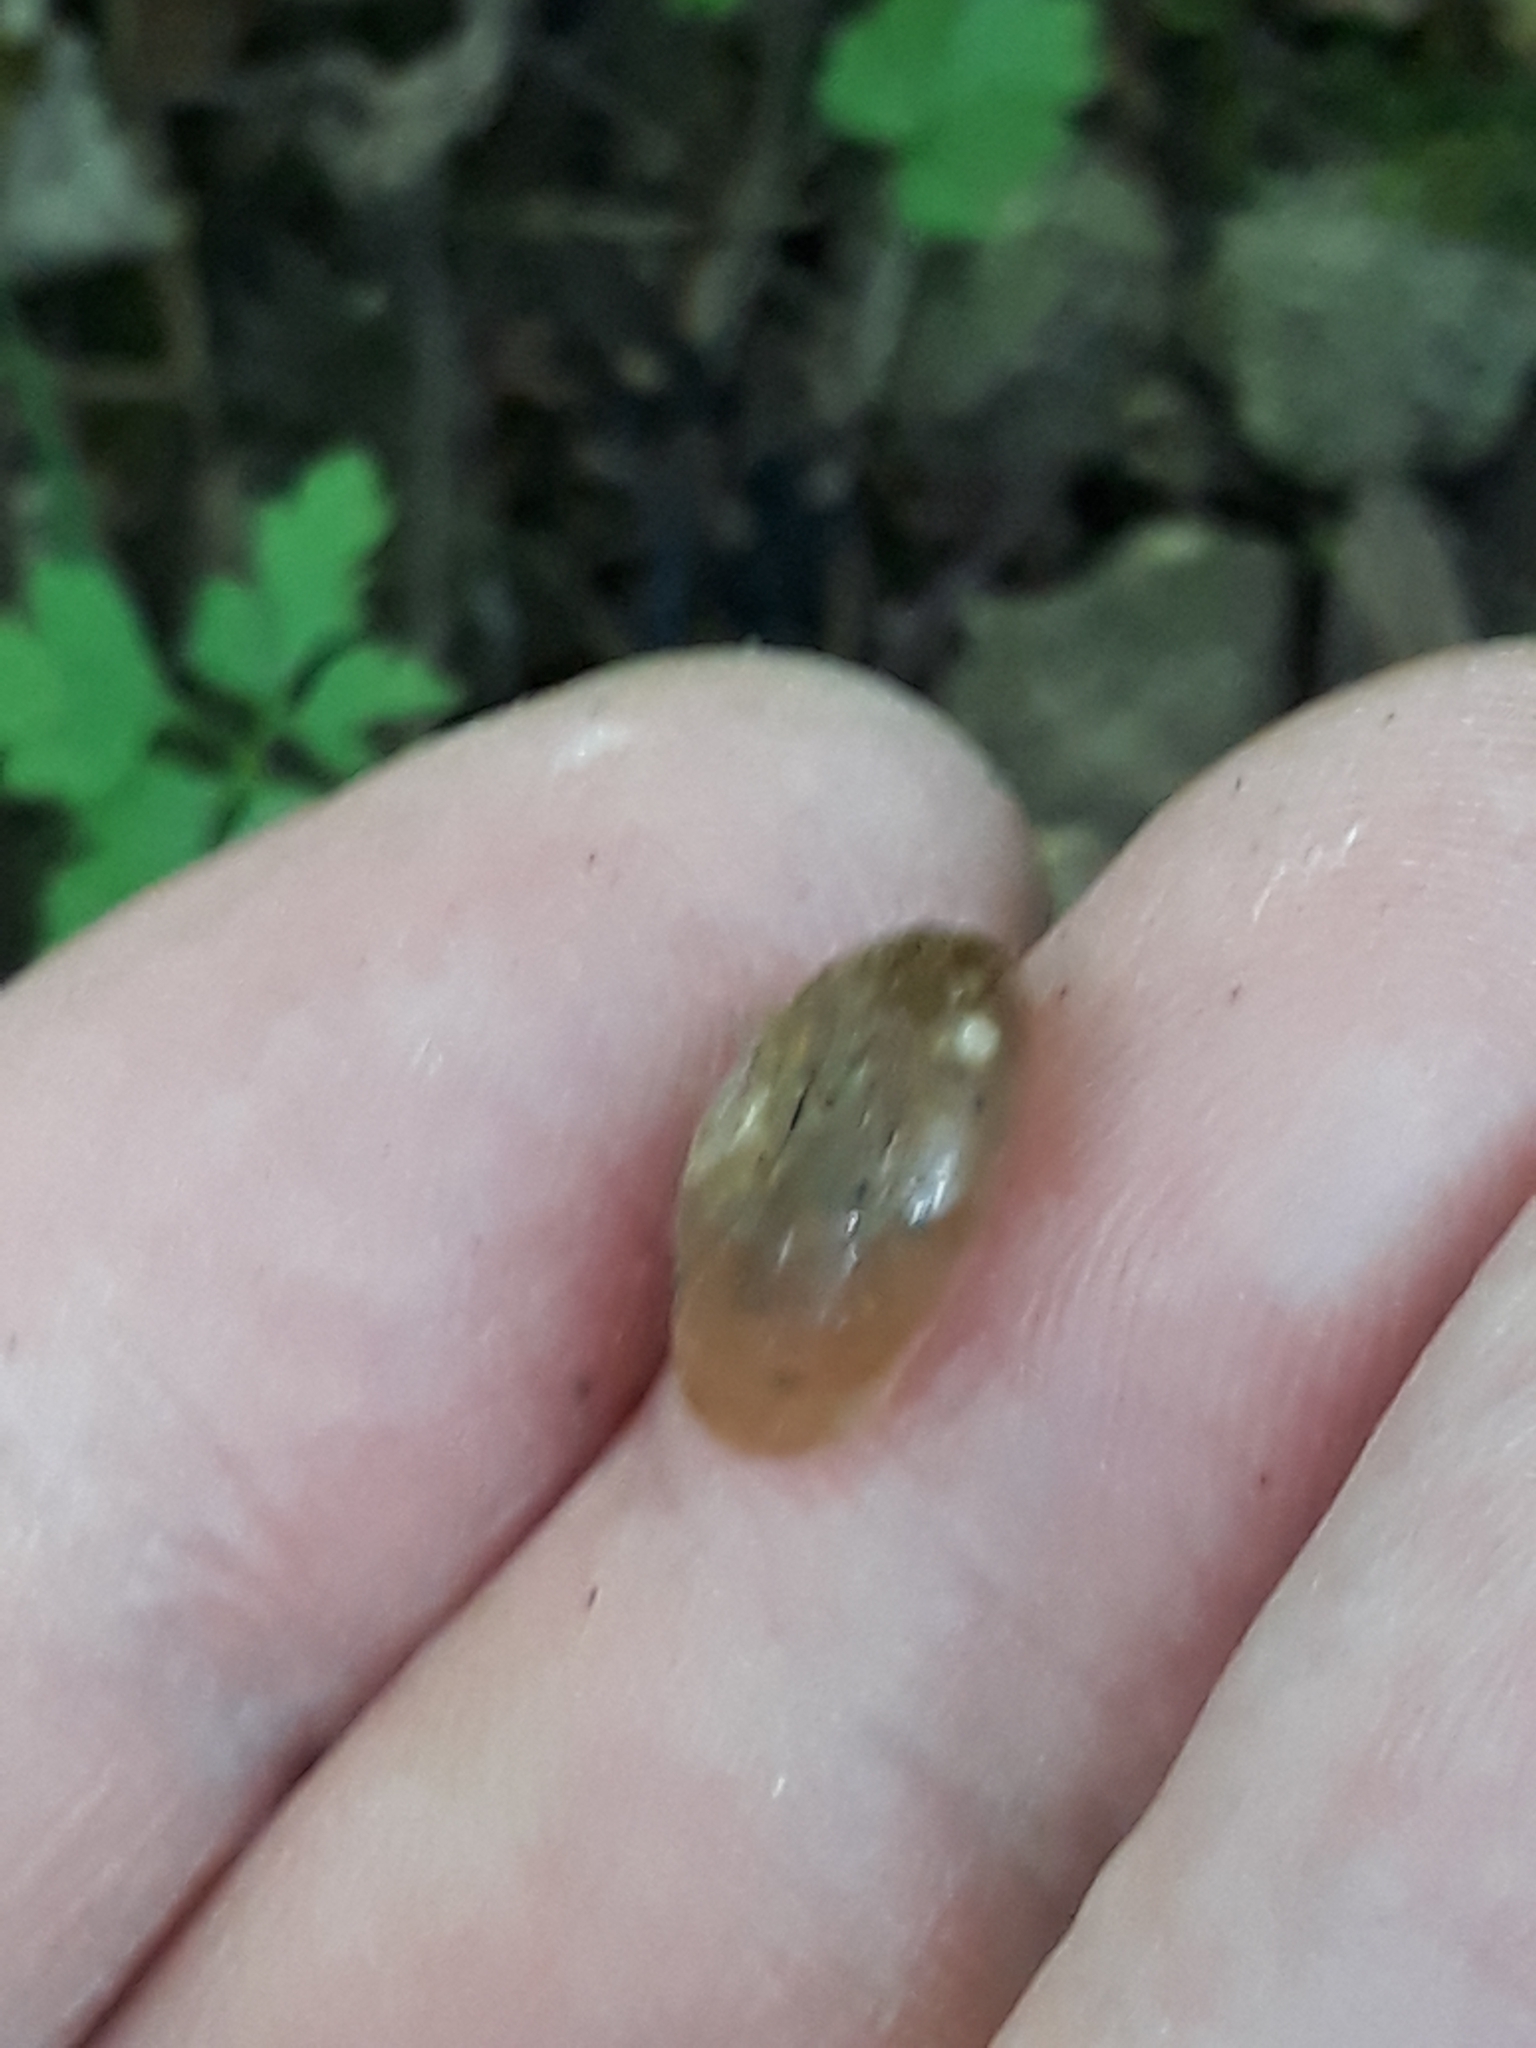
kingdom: Animalia
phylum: Mollusca
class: Gastropoda
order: Stylommatophora
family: Oxychilidae
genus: Oxychilus
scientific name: Oxychilus draparnaudi
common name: Draparnaud's glass snail
